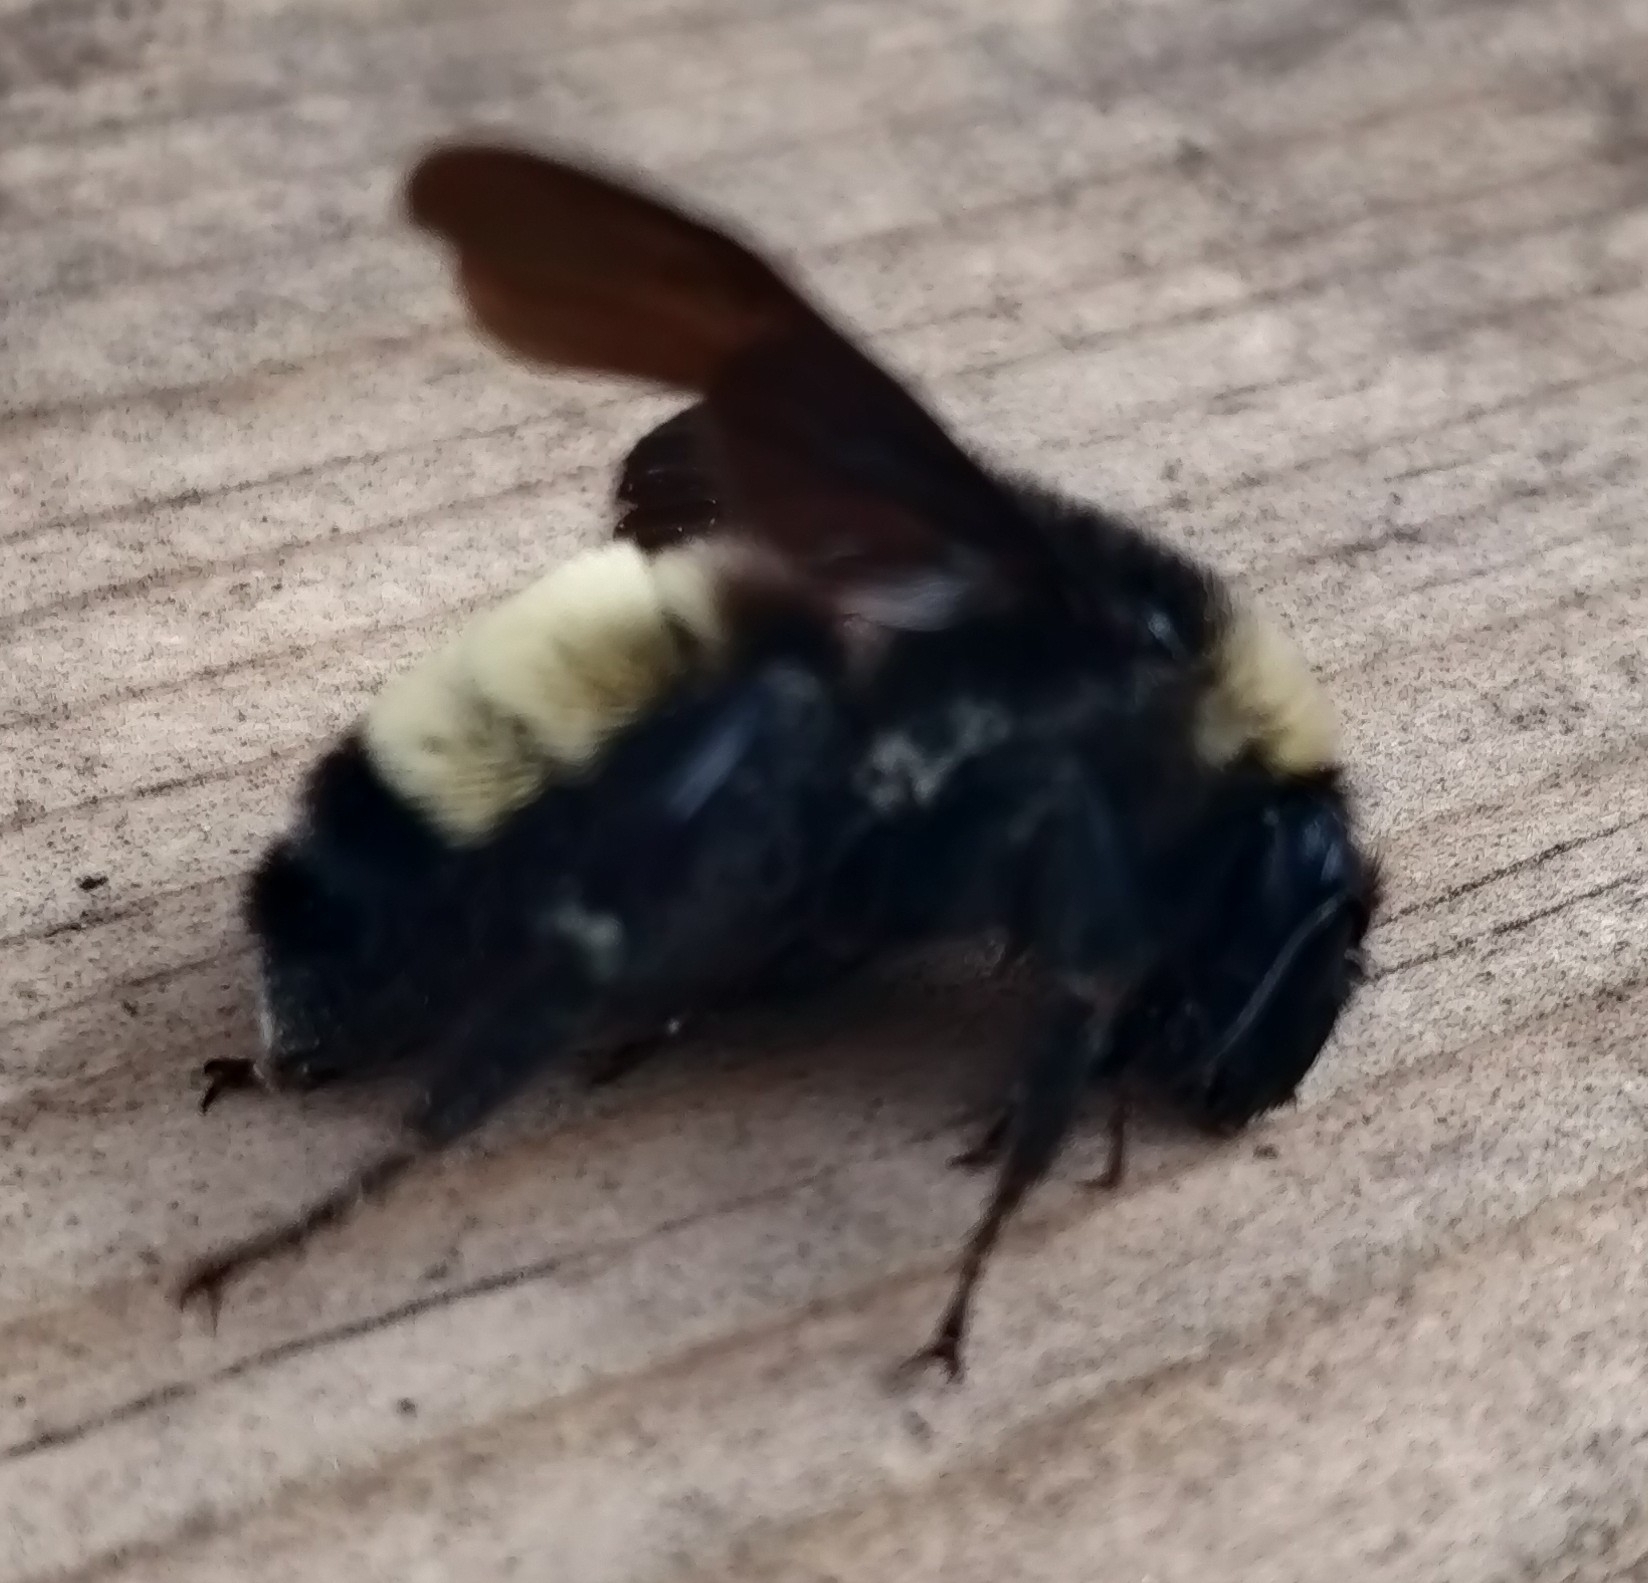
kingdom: Animalia
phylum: Arthropoda
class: Insecta
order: Hymenoptera
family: Apidae
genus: Bombus
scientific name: Bombus pensylvanicus
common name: Bumble bee
